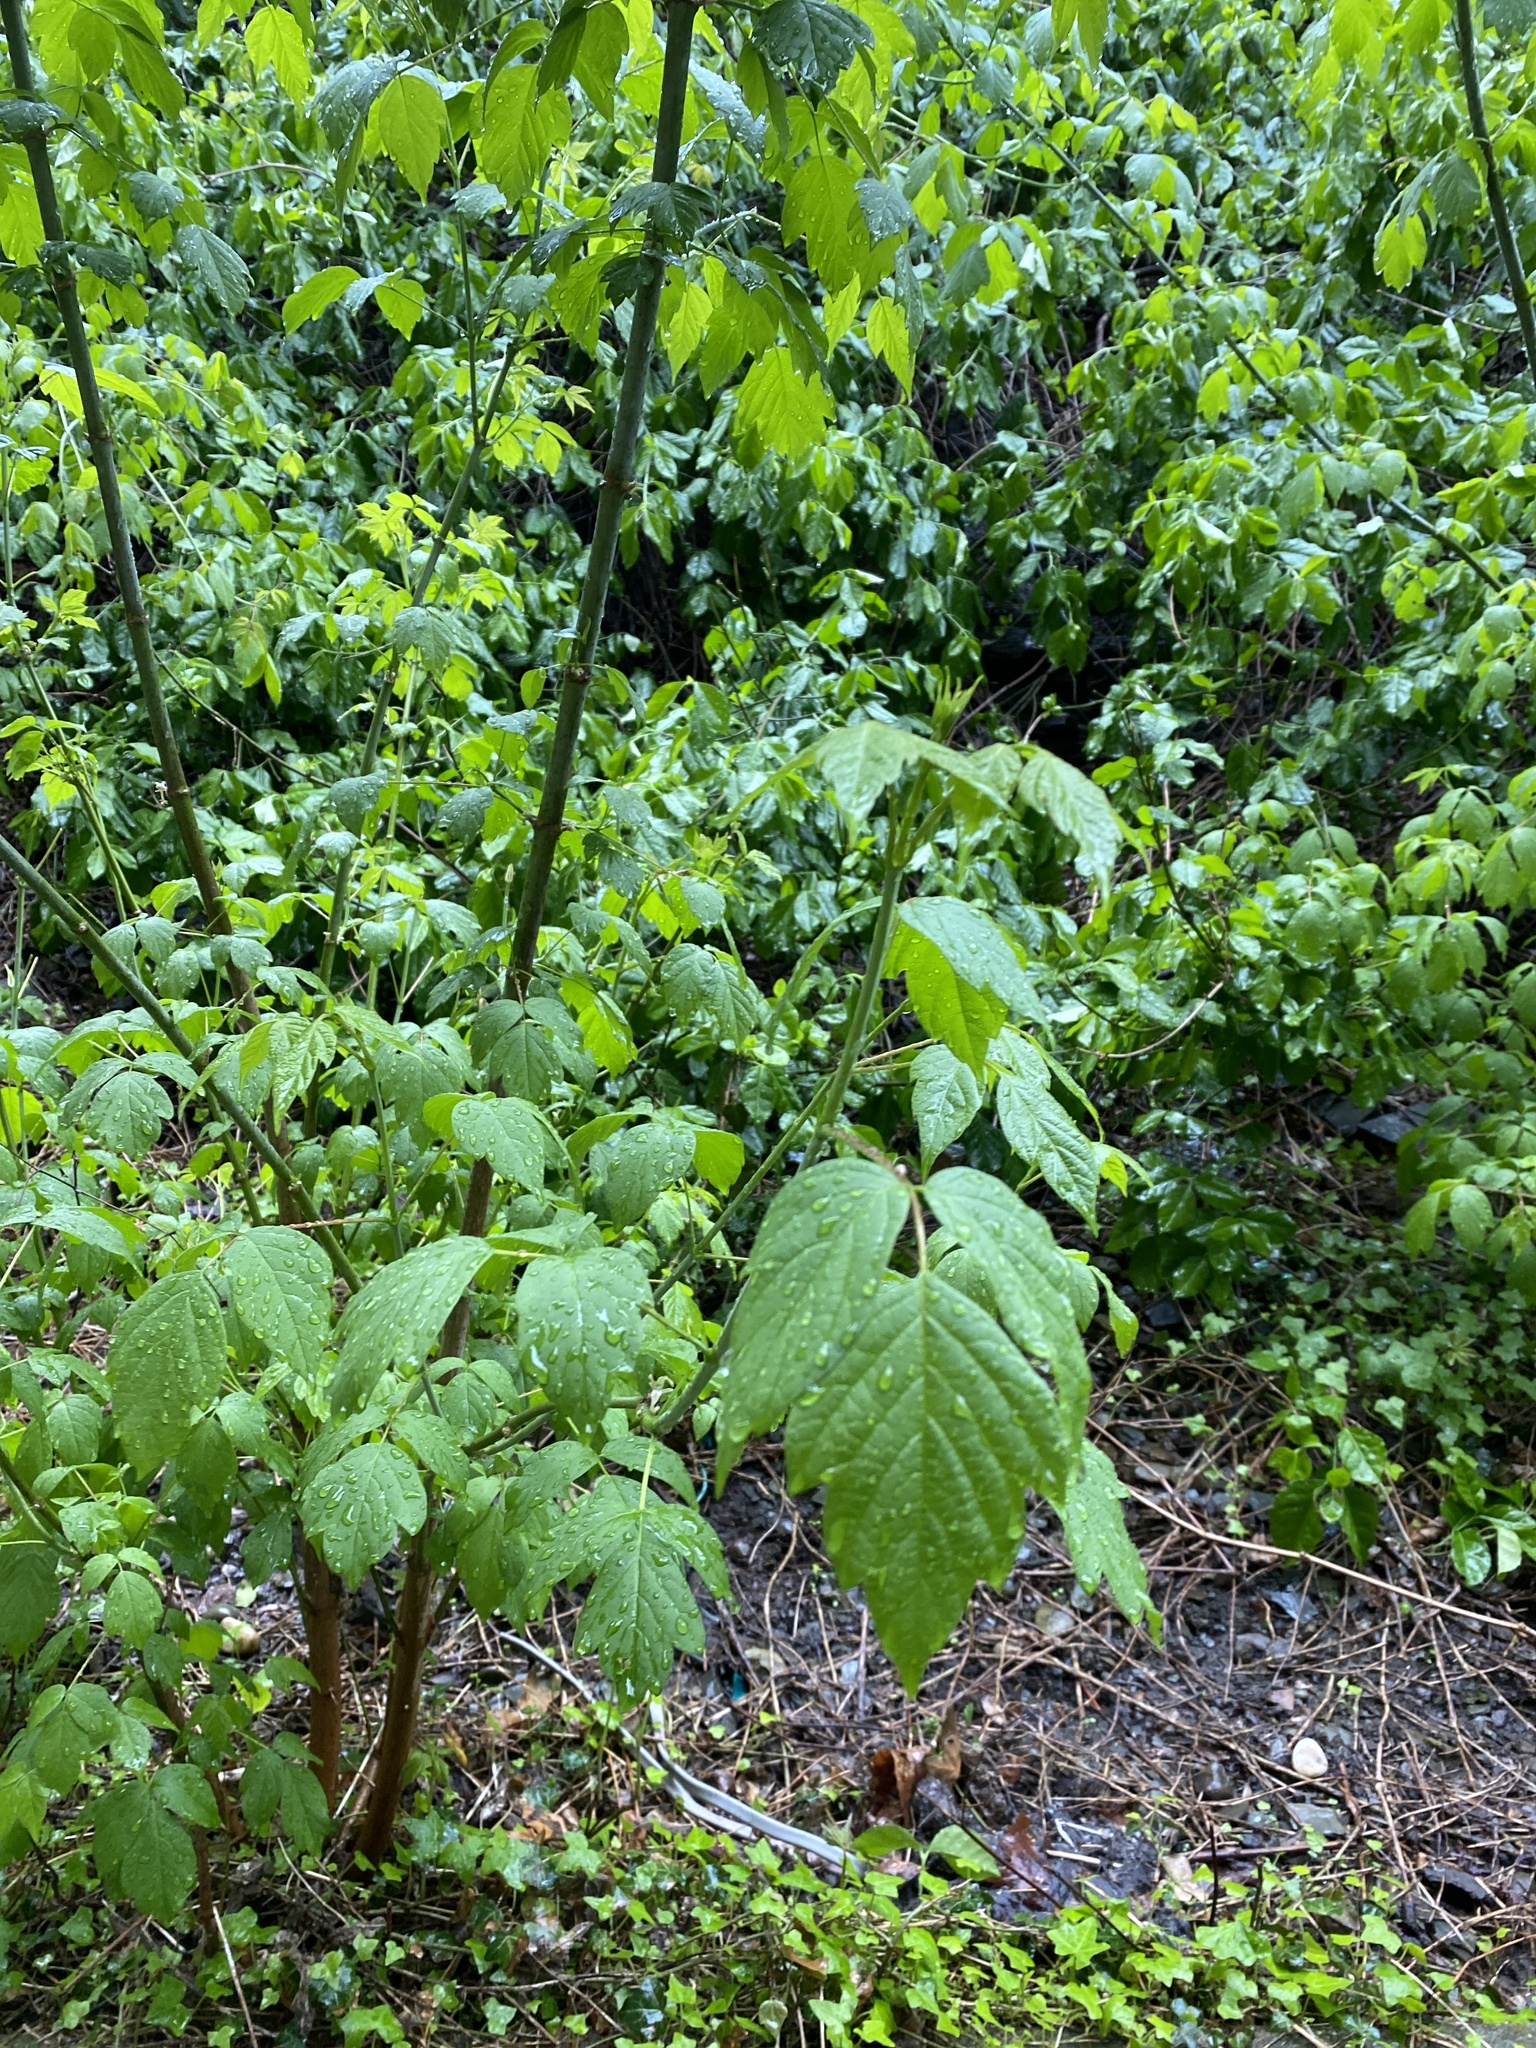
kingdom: Plantae
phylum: Tracheophyta
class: Magnoliopsida
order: Sapindales
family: Sapindaceae
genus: Acer
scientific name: Acer negundo
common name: Ashleaf maple
